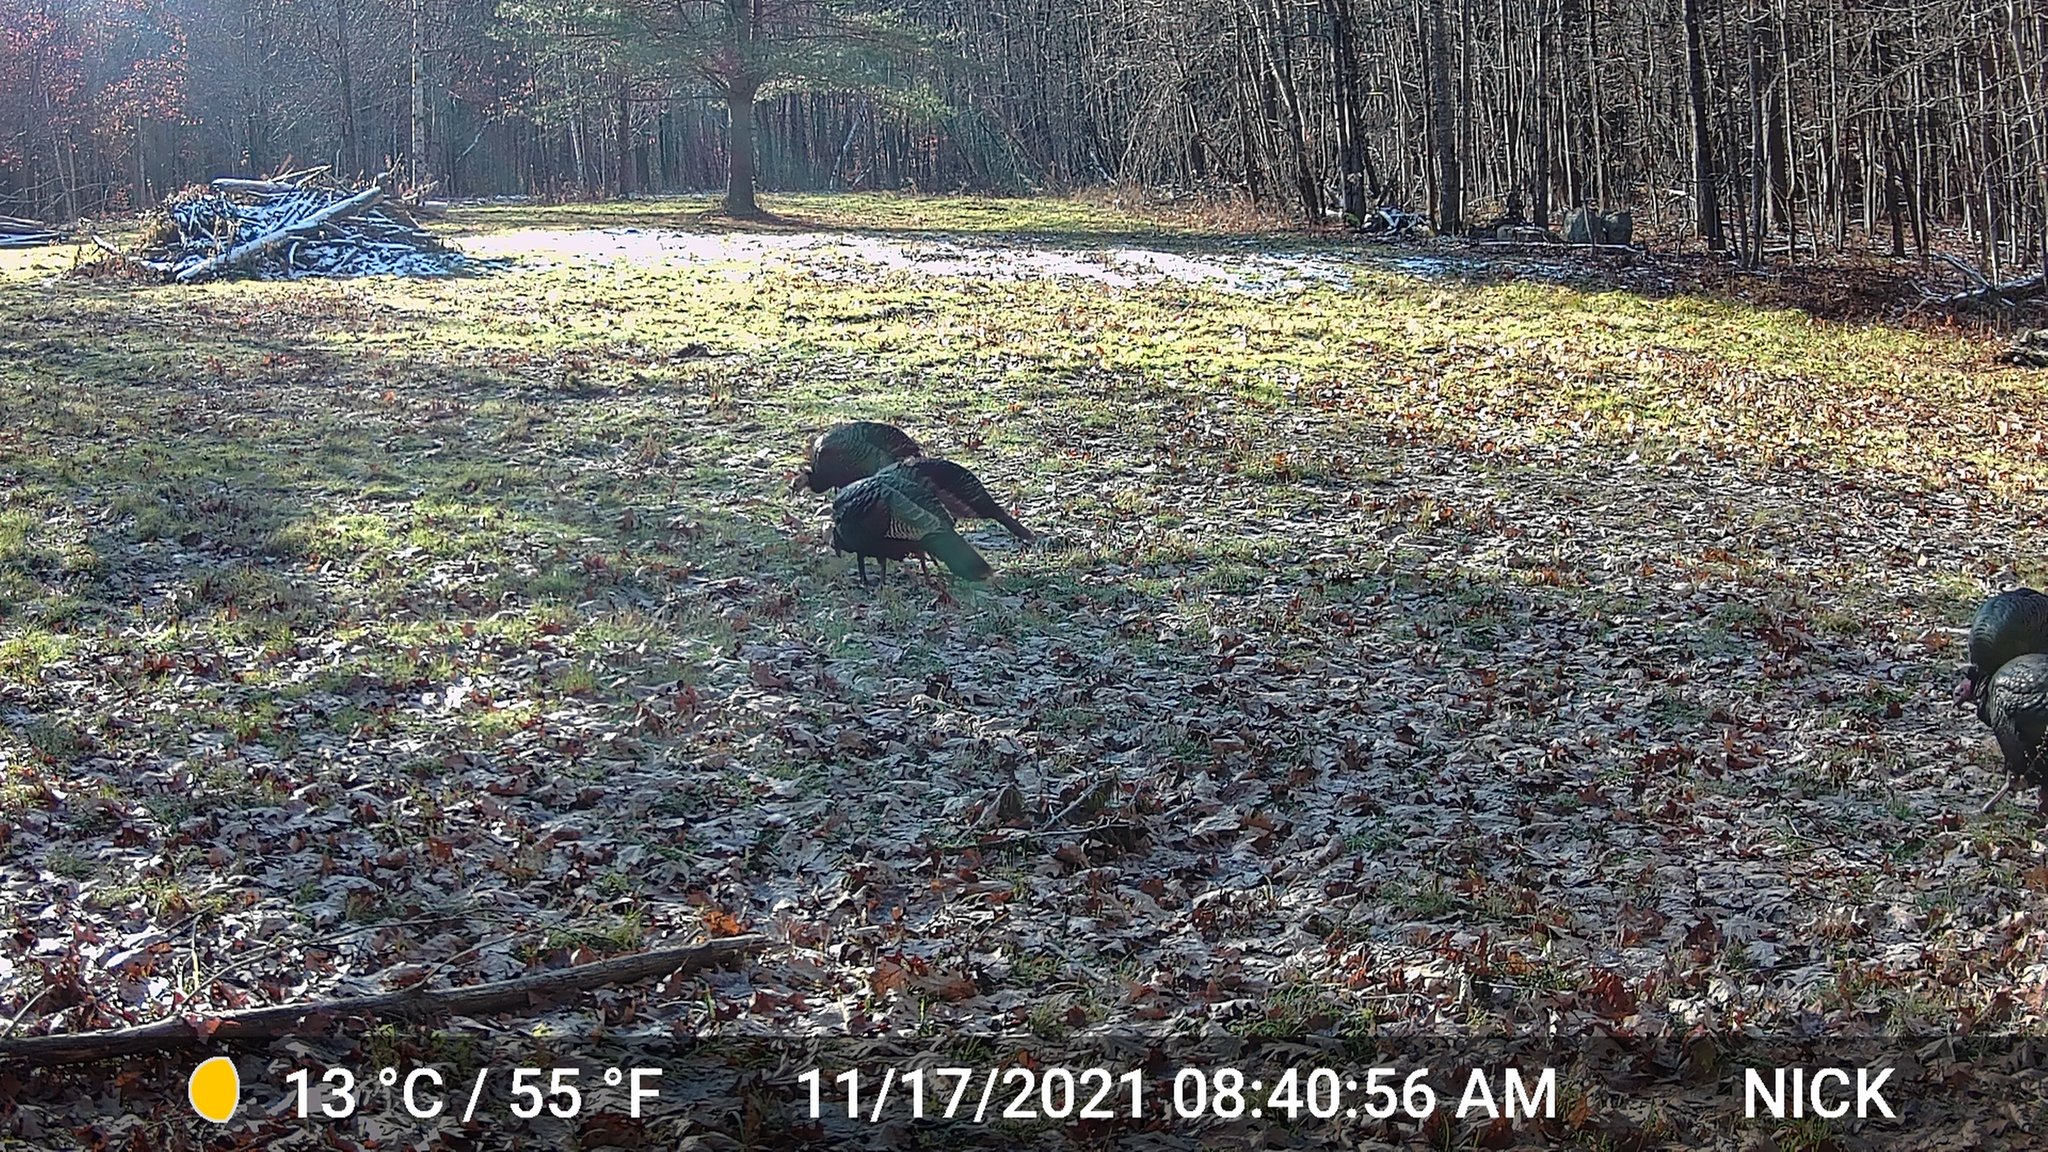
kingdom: Animalia
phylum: Chordata
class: Aves
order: Galliformes
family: Phasianidae
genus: Meleagris
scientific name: Meleagris gallopavo
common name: Wild turkey
